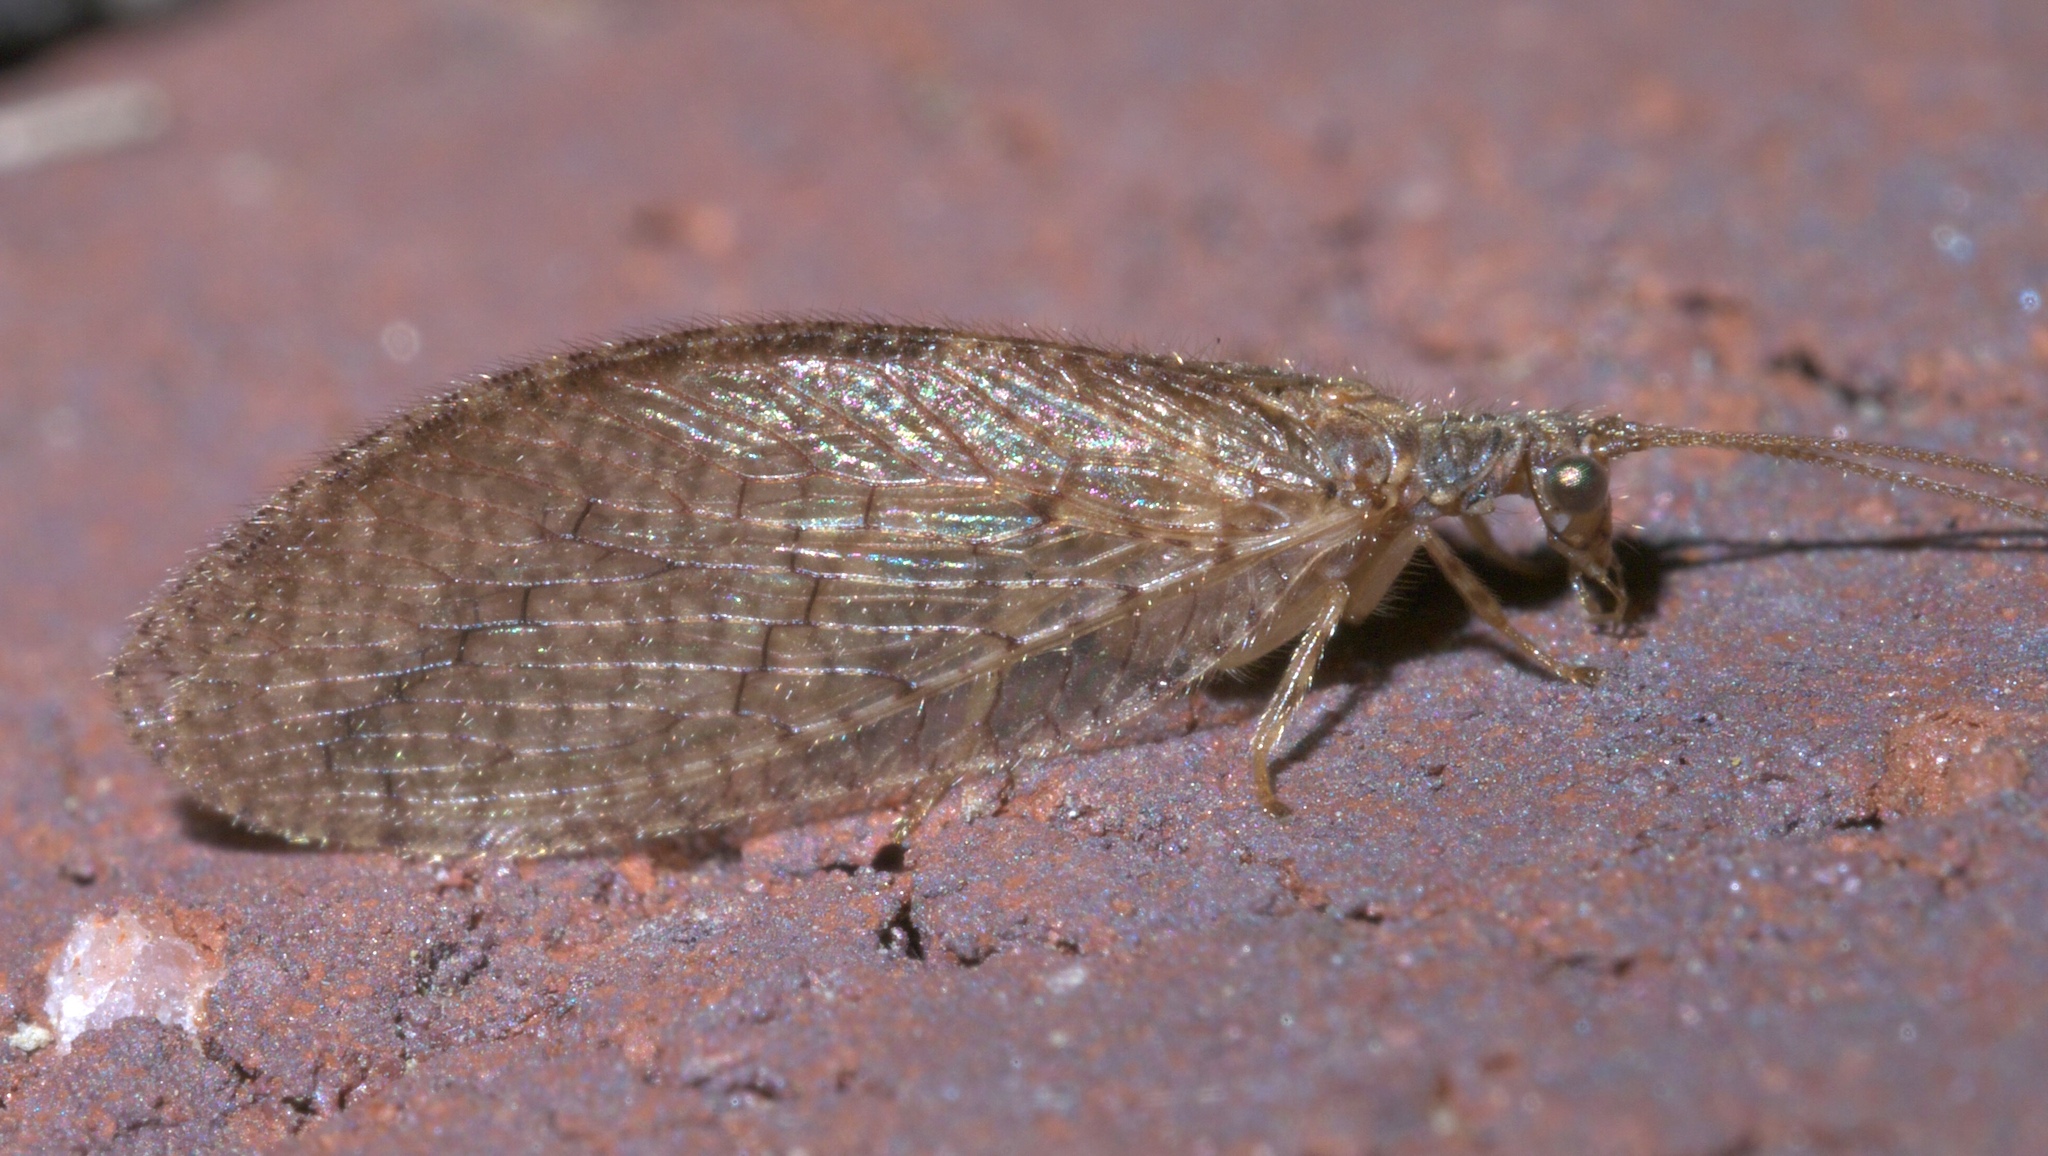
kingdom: Animalia
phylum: Arthropoda
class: Insecta
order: Neuroptera
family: Hemerobiidae
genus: Micromus
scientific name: Micromus posticus
